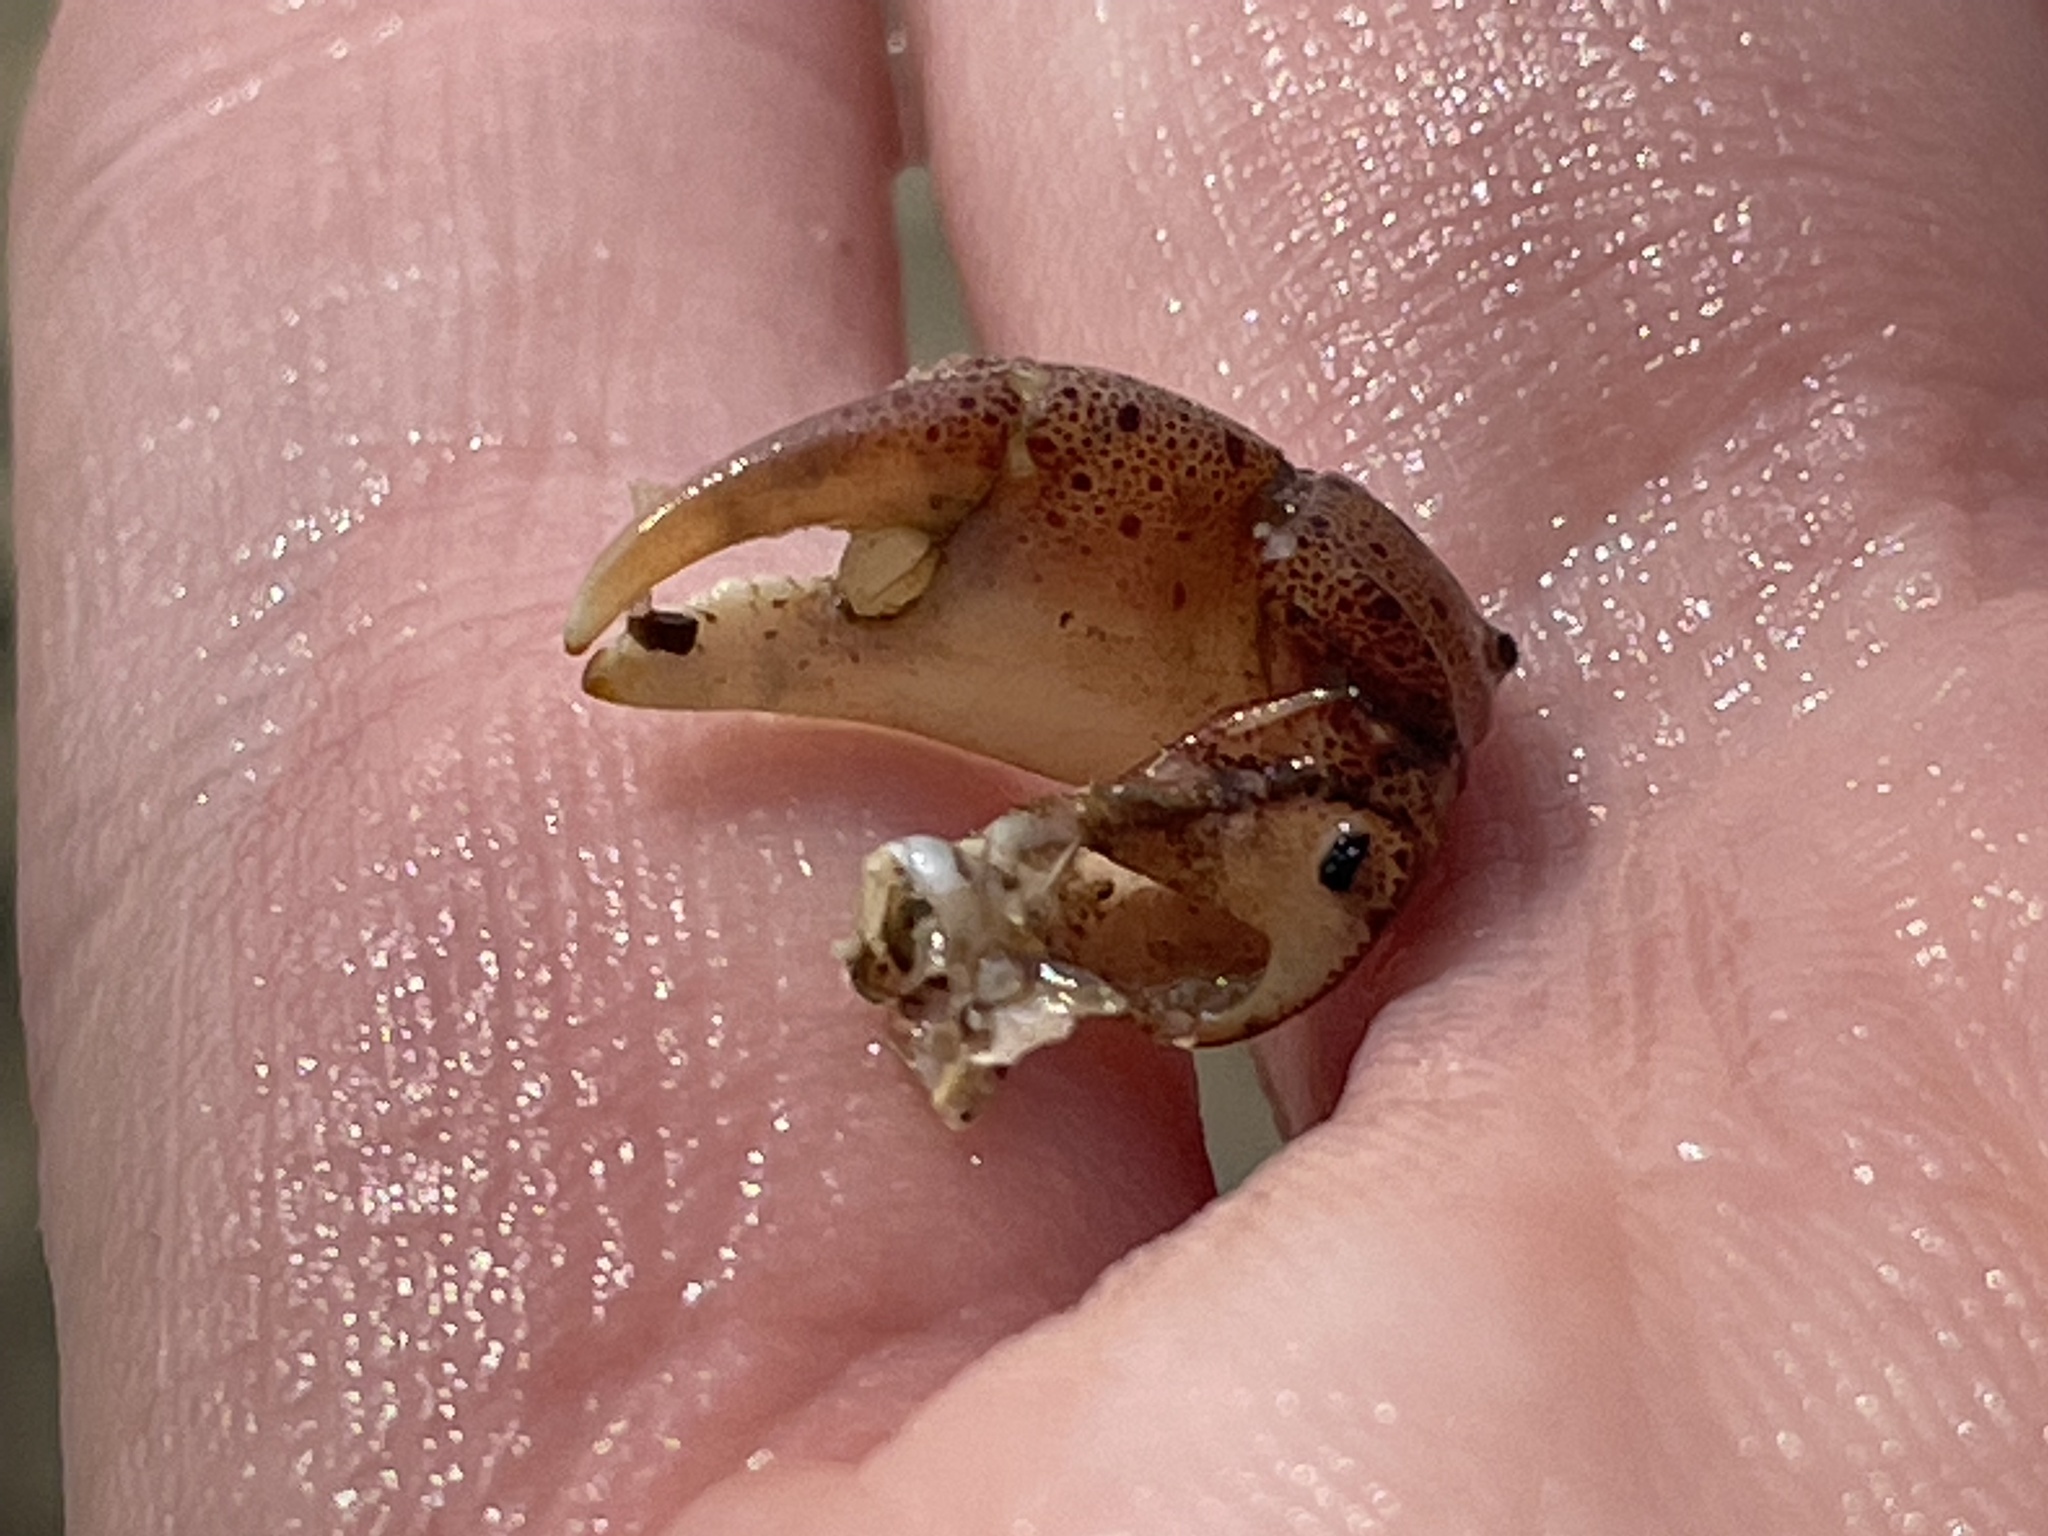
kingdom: Animalia
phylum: Arthropoda
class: Malacostraca
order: Decapoda
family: Varunidae
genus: Hemigrapsus
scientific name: Hemigrapsus sanguineus
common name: Asian shore crab
